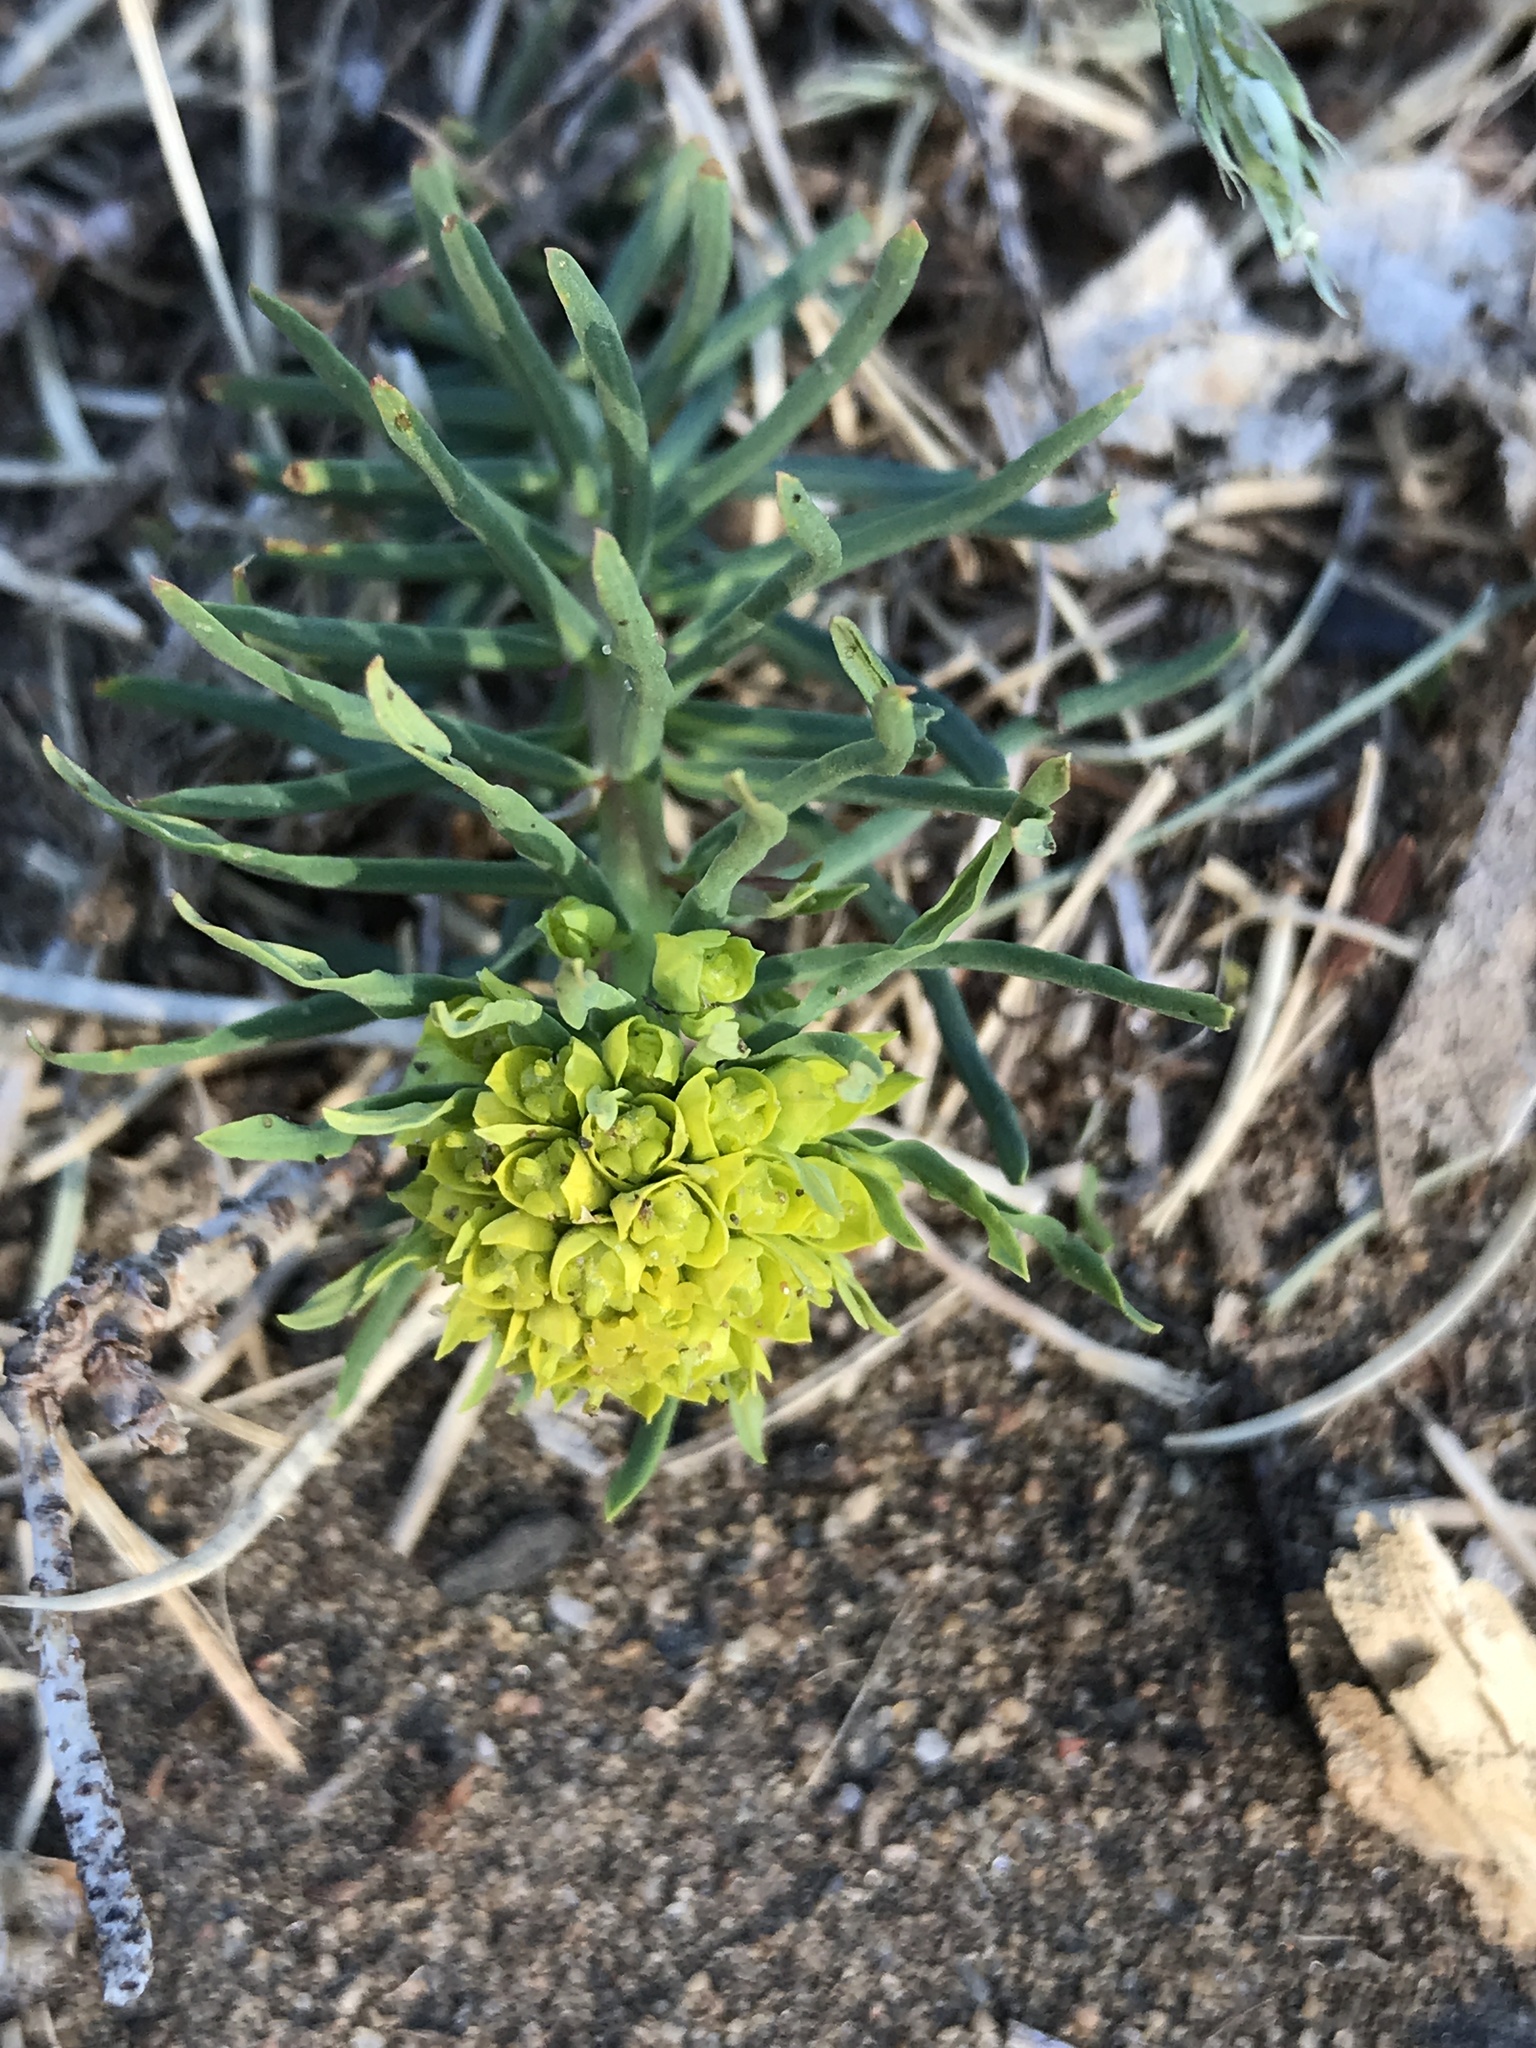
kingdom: Plantae
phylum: Tracheophyta
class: Magnoliopsida
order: Malpighiales
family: Euphorbiaceae
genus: Euphorbia
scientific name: Euphorbia cyparissias
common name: Cypress spurge
